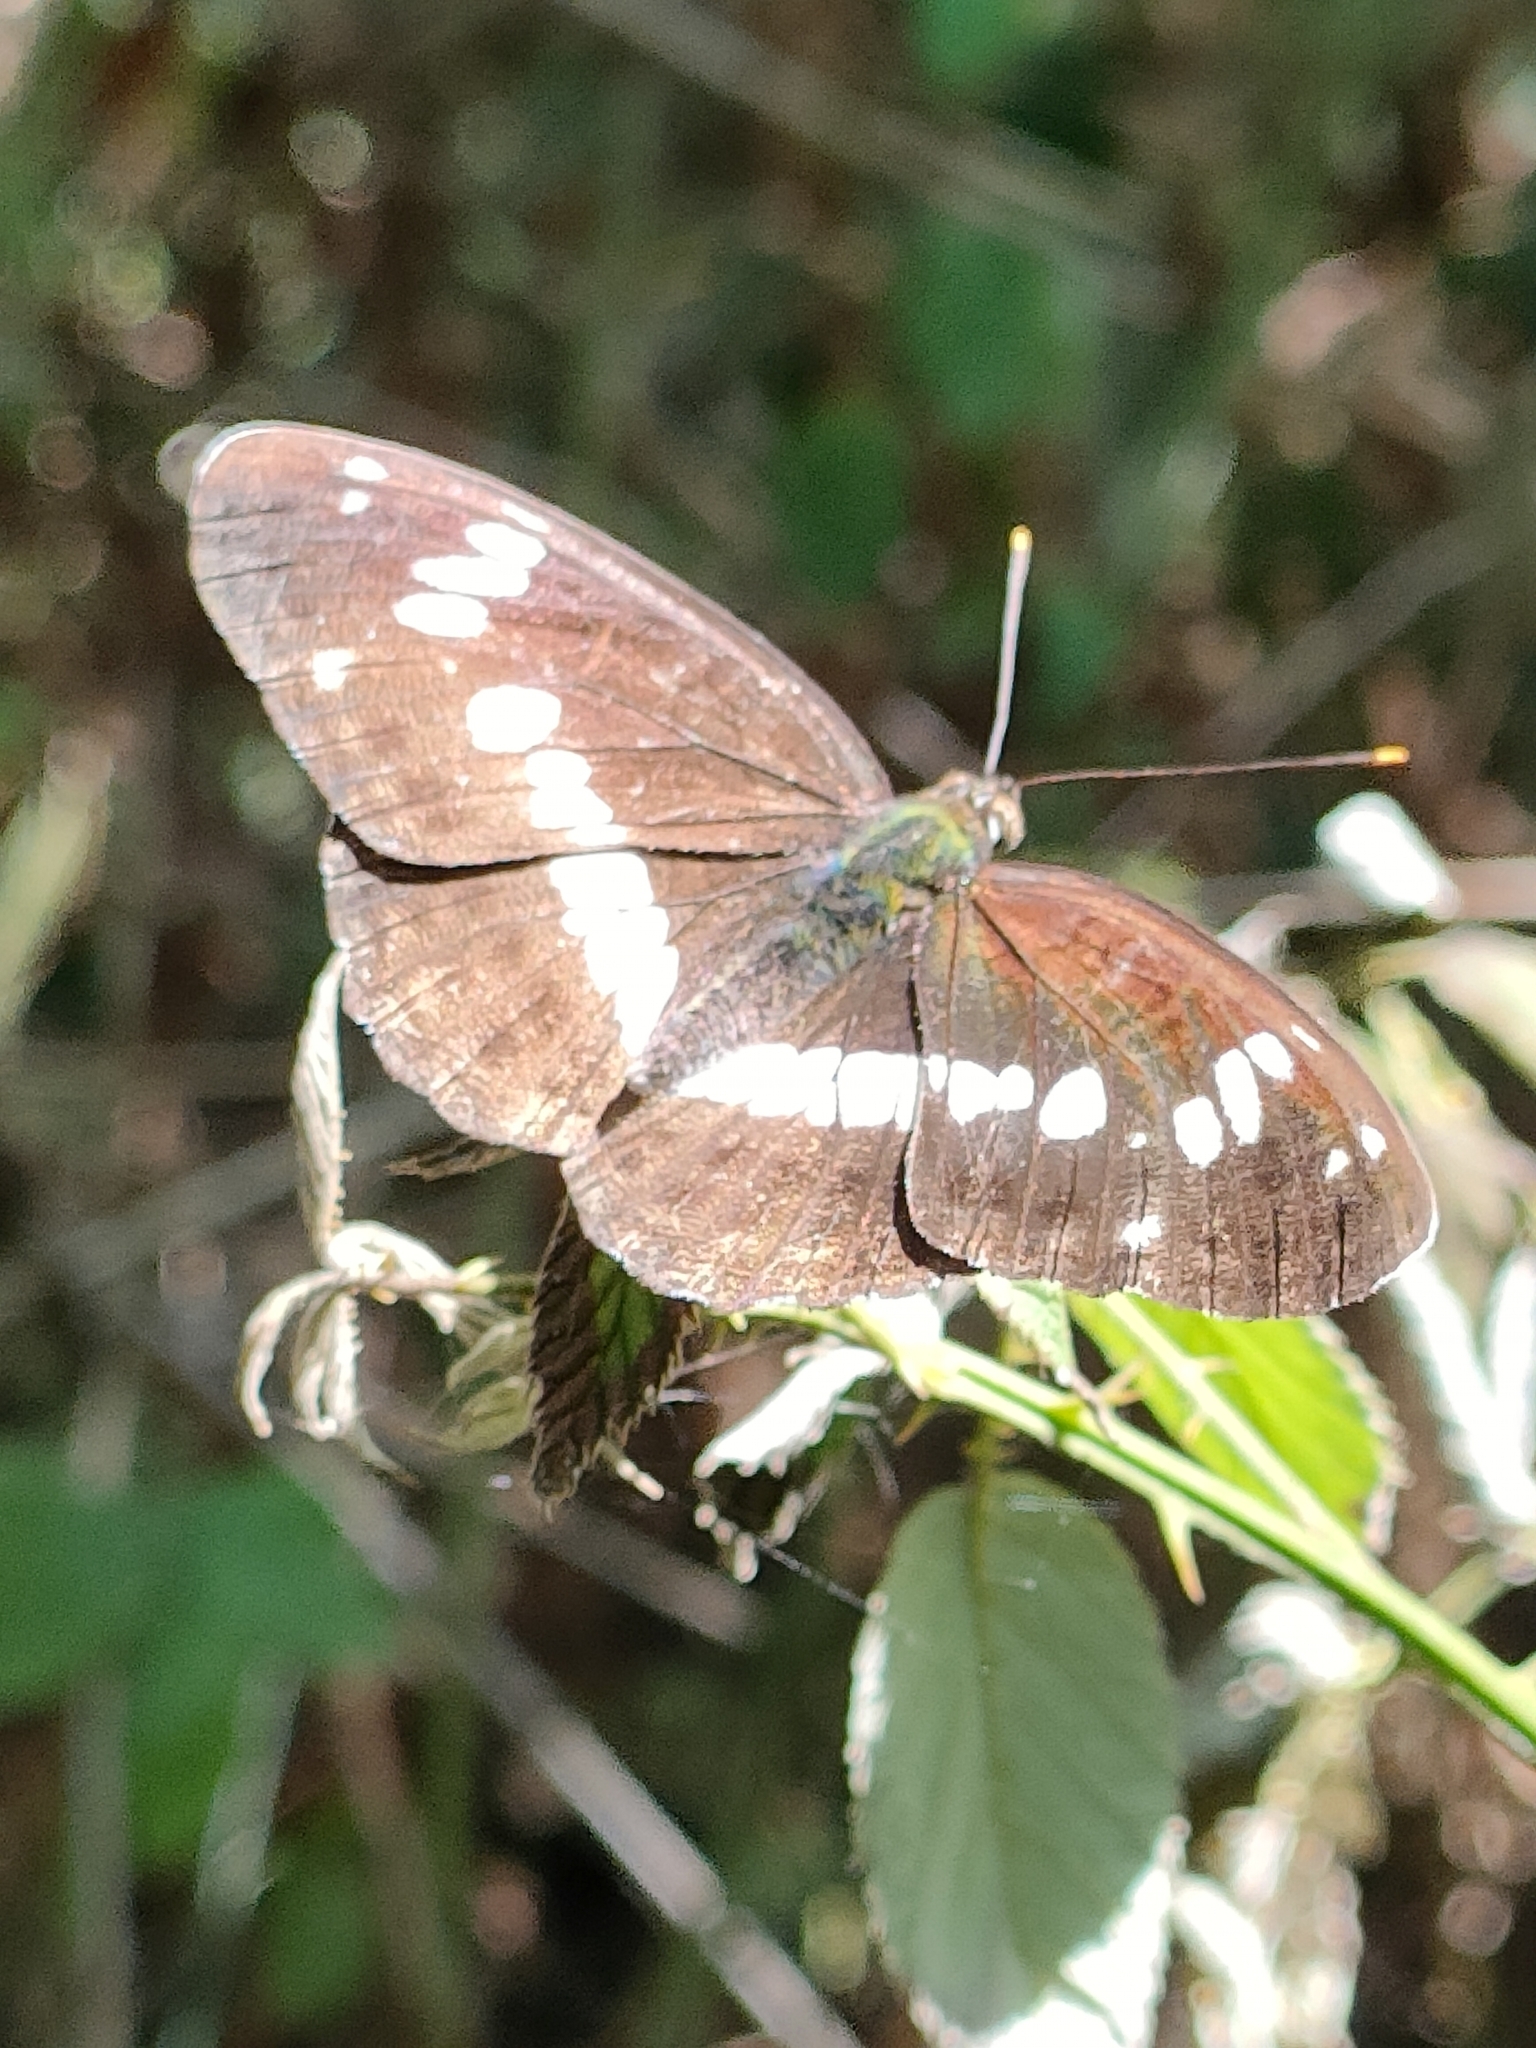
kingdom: Animalia
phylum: Arthropoda
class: Insecta
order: Lepidoptera
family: Nymphalidae
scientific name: Nymphalidae
